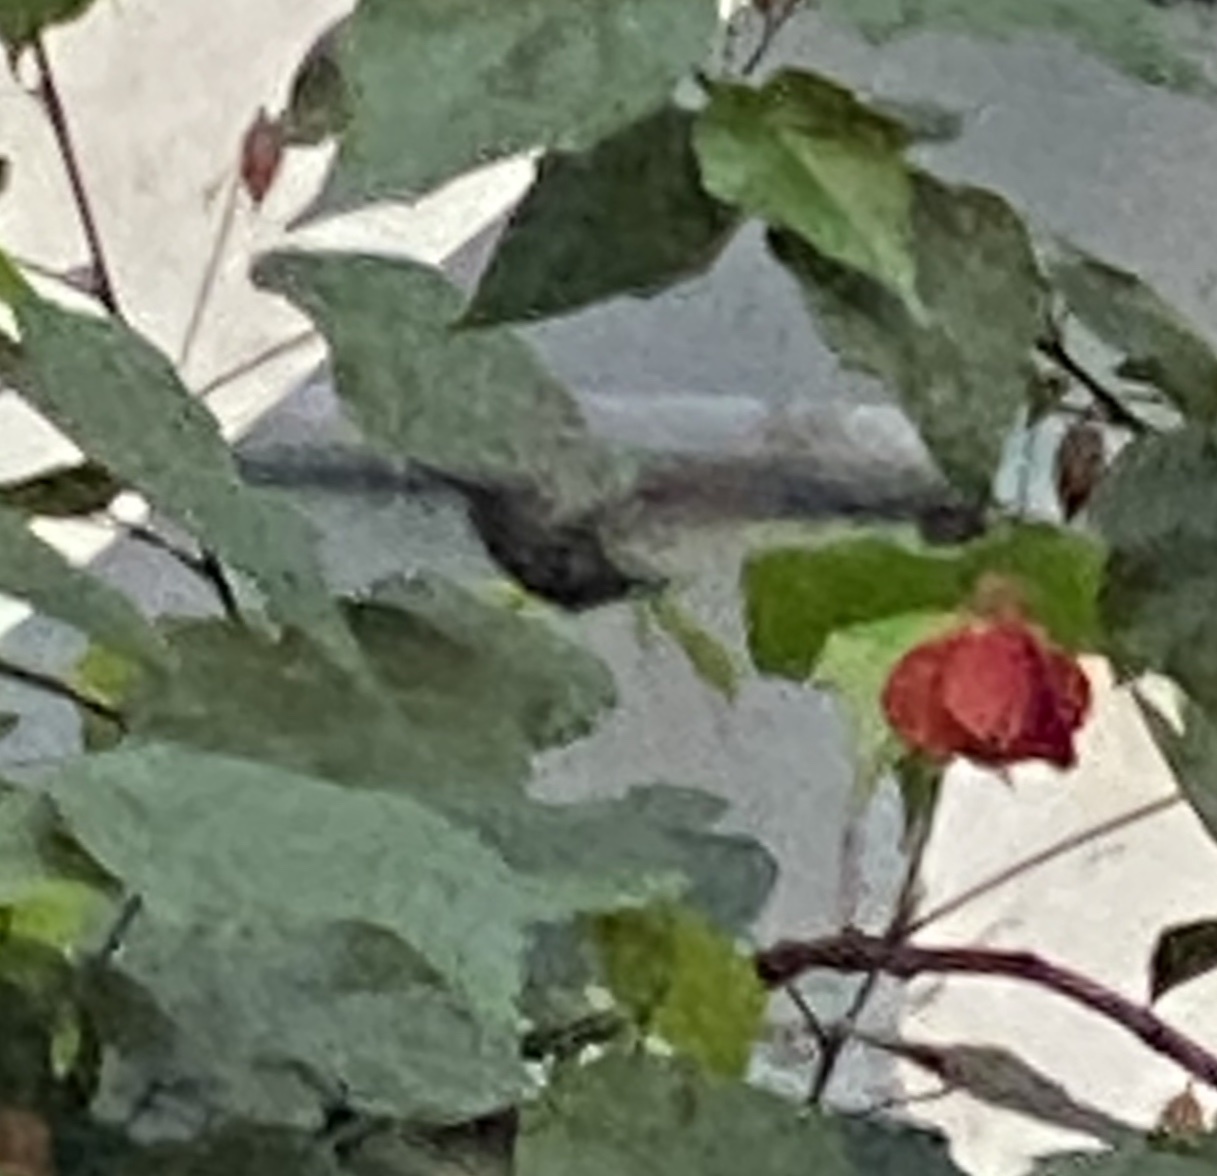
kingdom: Animalia
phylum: Chordata
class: Aves
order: Apodiformes
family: Trochilidae
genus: Calypte
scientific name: Calypte anna
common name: Anna's hummingbird
